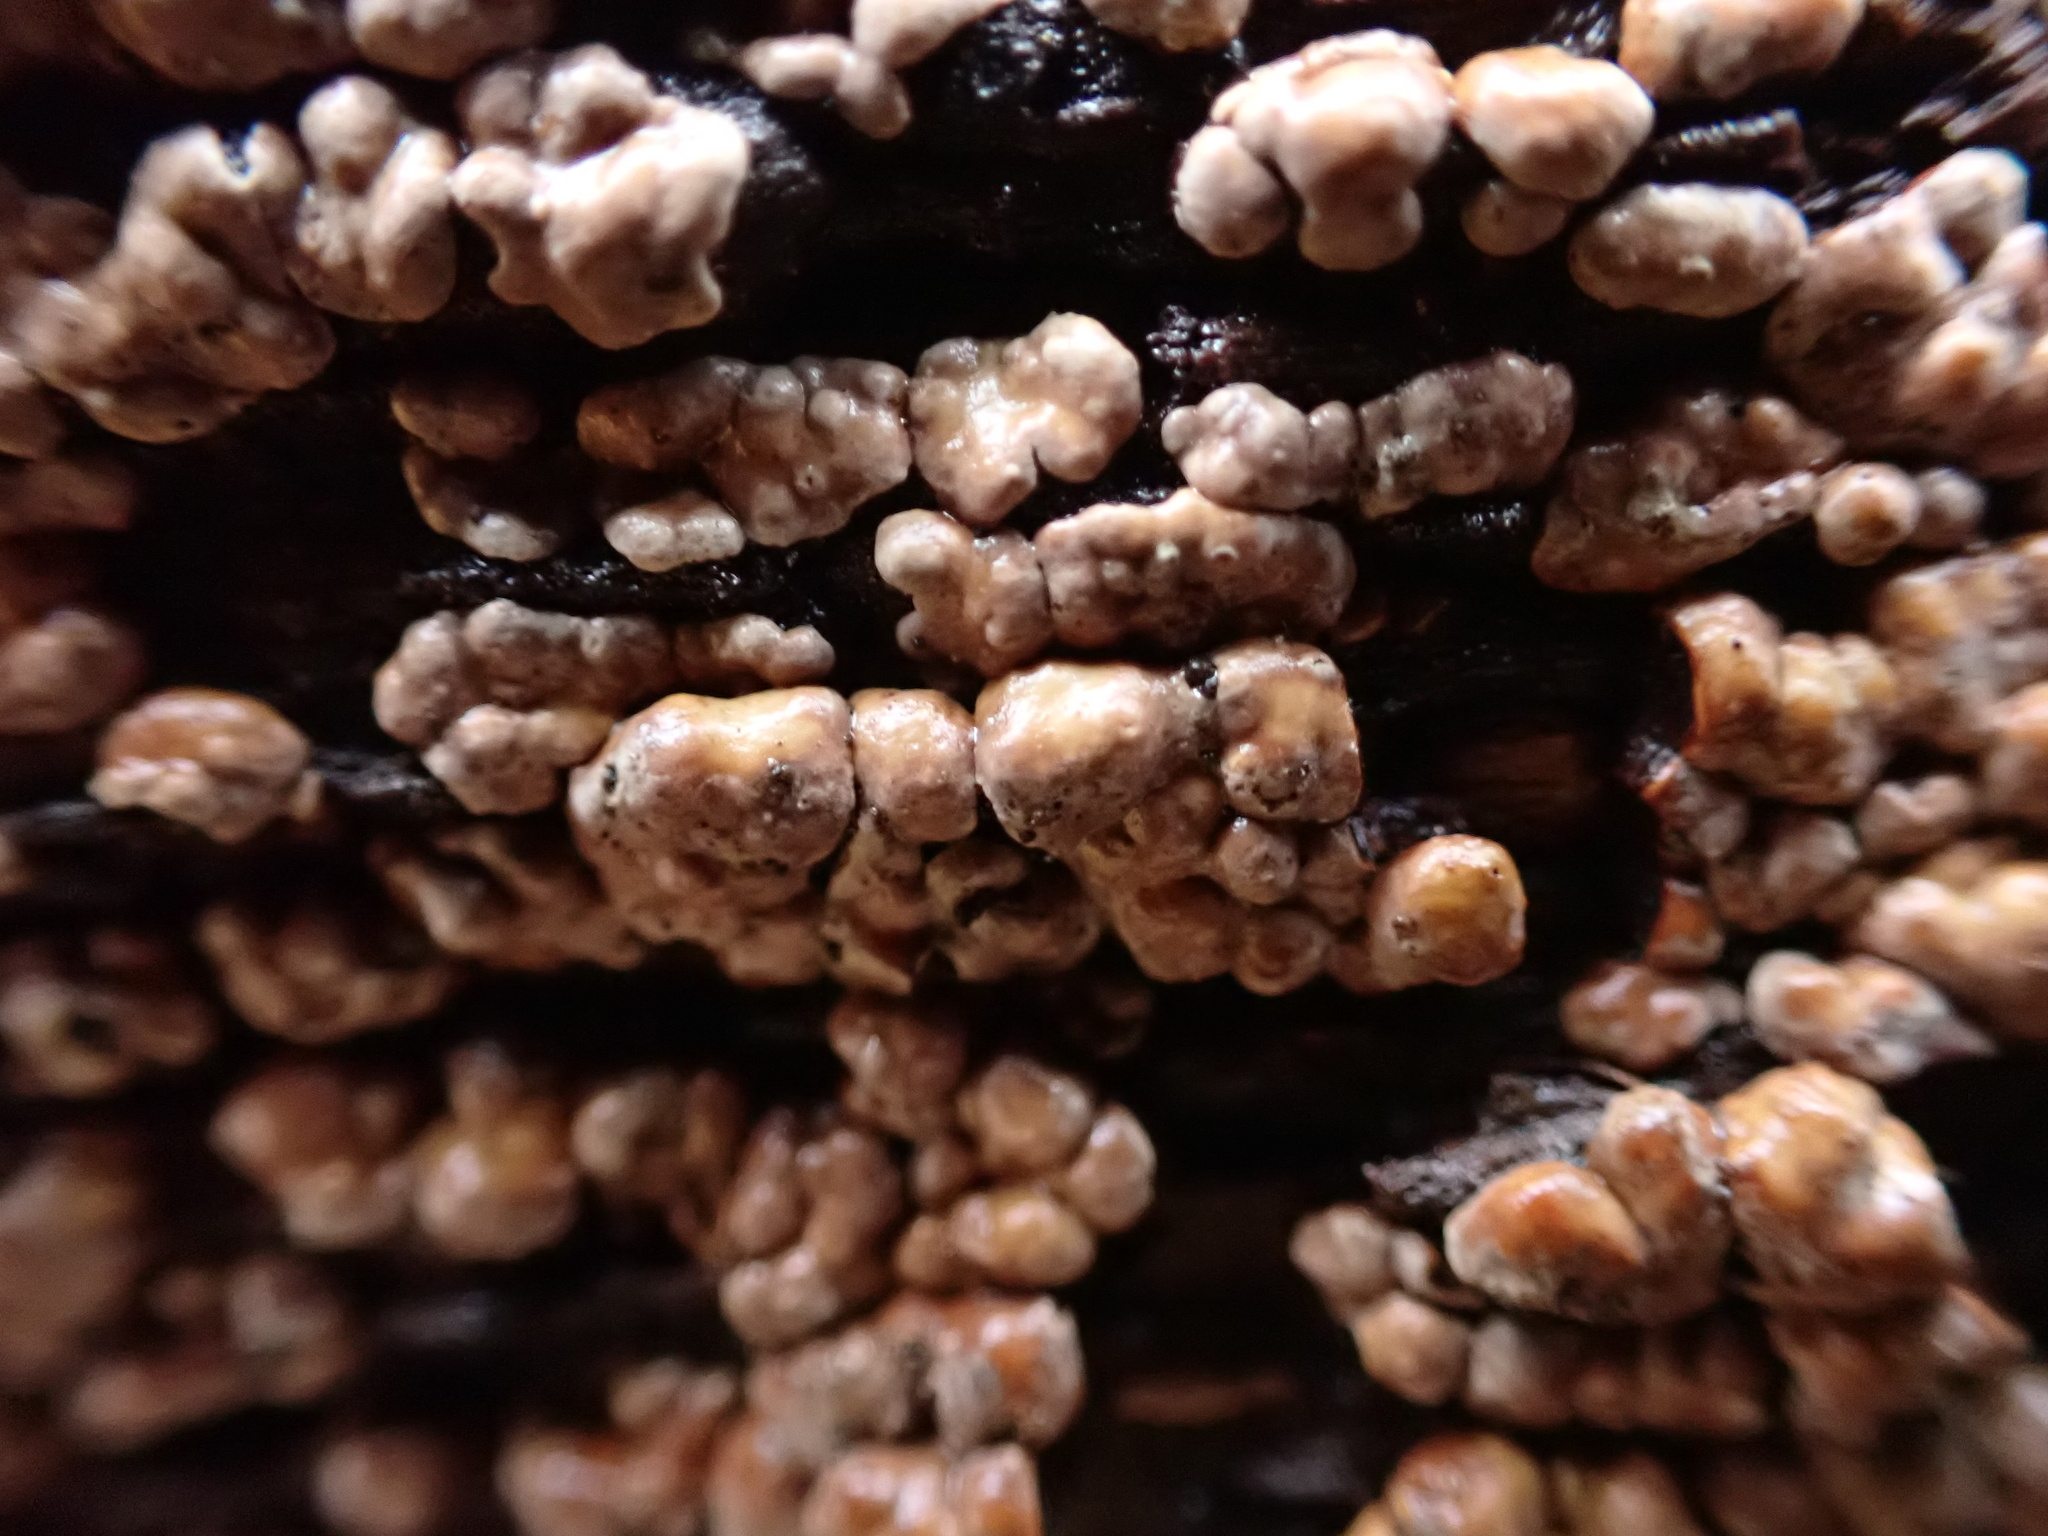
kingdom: Fungi
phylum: Basidiomycota
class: Agaricomycetes
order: Russulales
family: Stereaceae
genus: Xylobolus
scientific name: Xylobolus frustulatus
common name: Ceramic parchment
